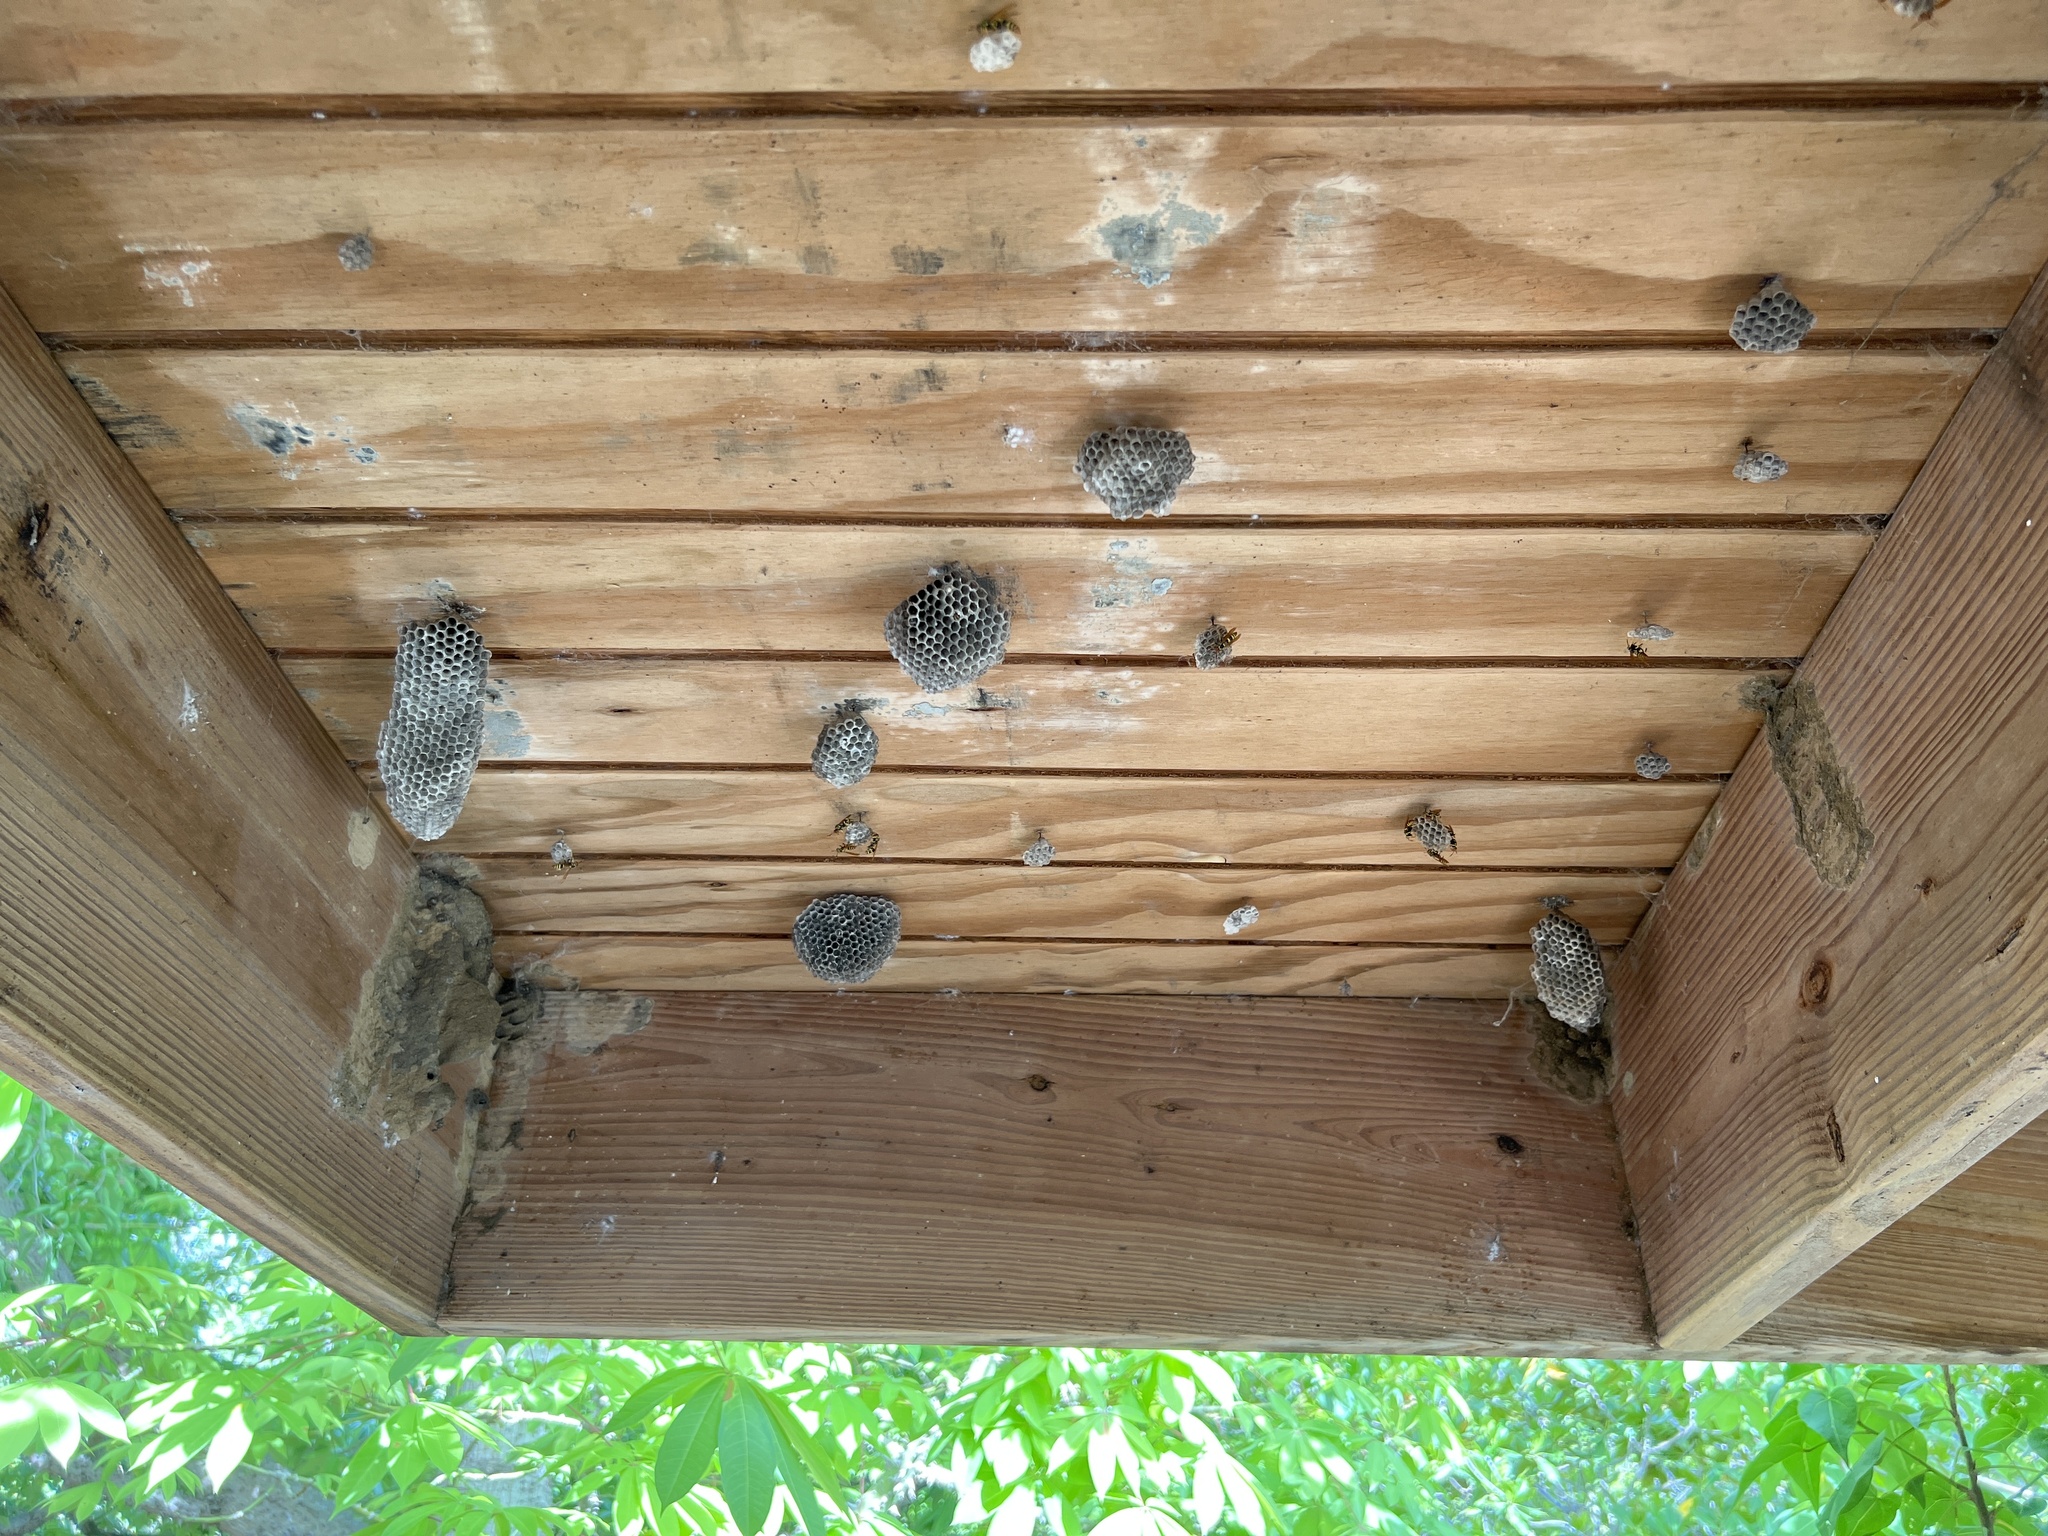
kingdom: Animalia
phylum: Arthropoda
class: Insecta
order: Hymenoptera
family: Eumenidae
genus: Polistes
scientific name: Polistes crinitus
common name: Jack spaniard
